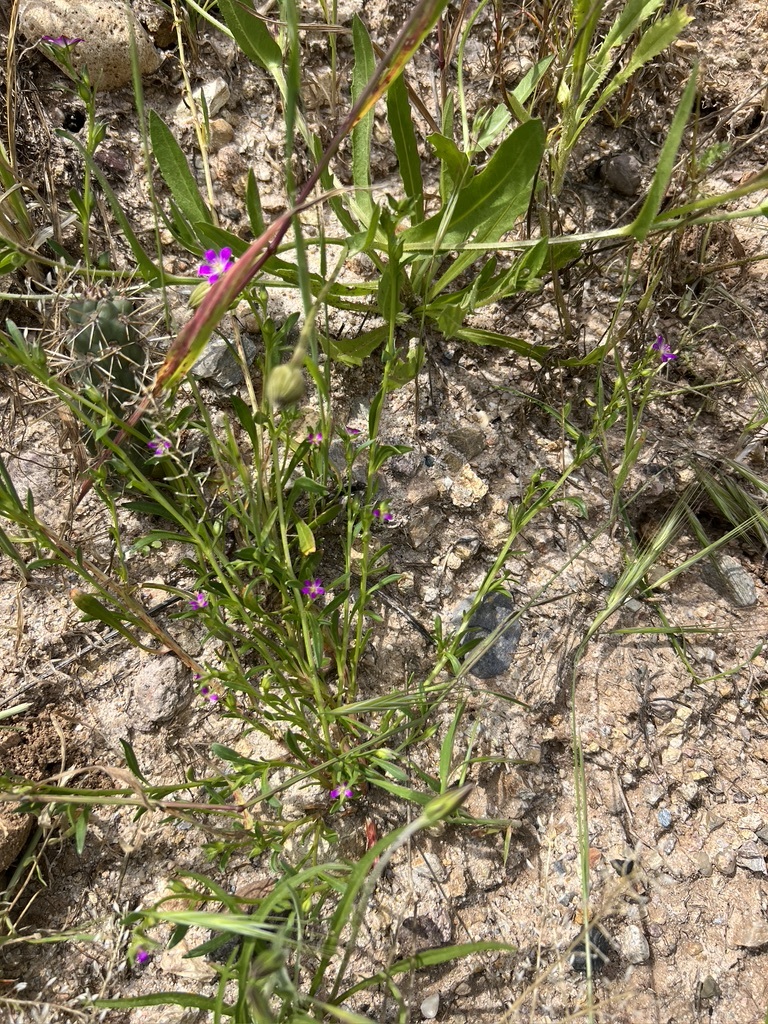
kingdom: Plantae
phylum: Tracheophyta
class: Magnoliopsida
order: Caryophyllales
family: Montiaceae
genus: Calandrinia
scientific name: Calandrinia menziesii
